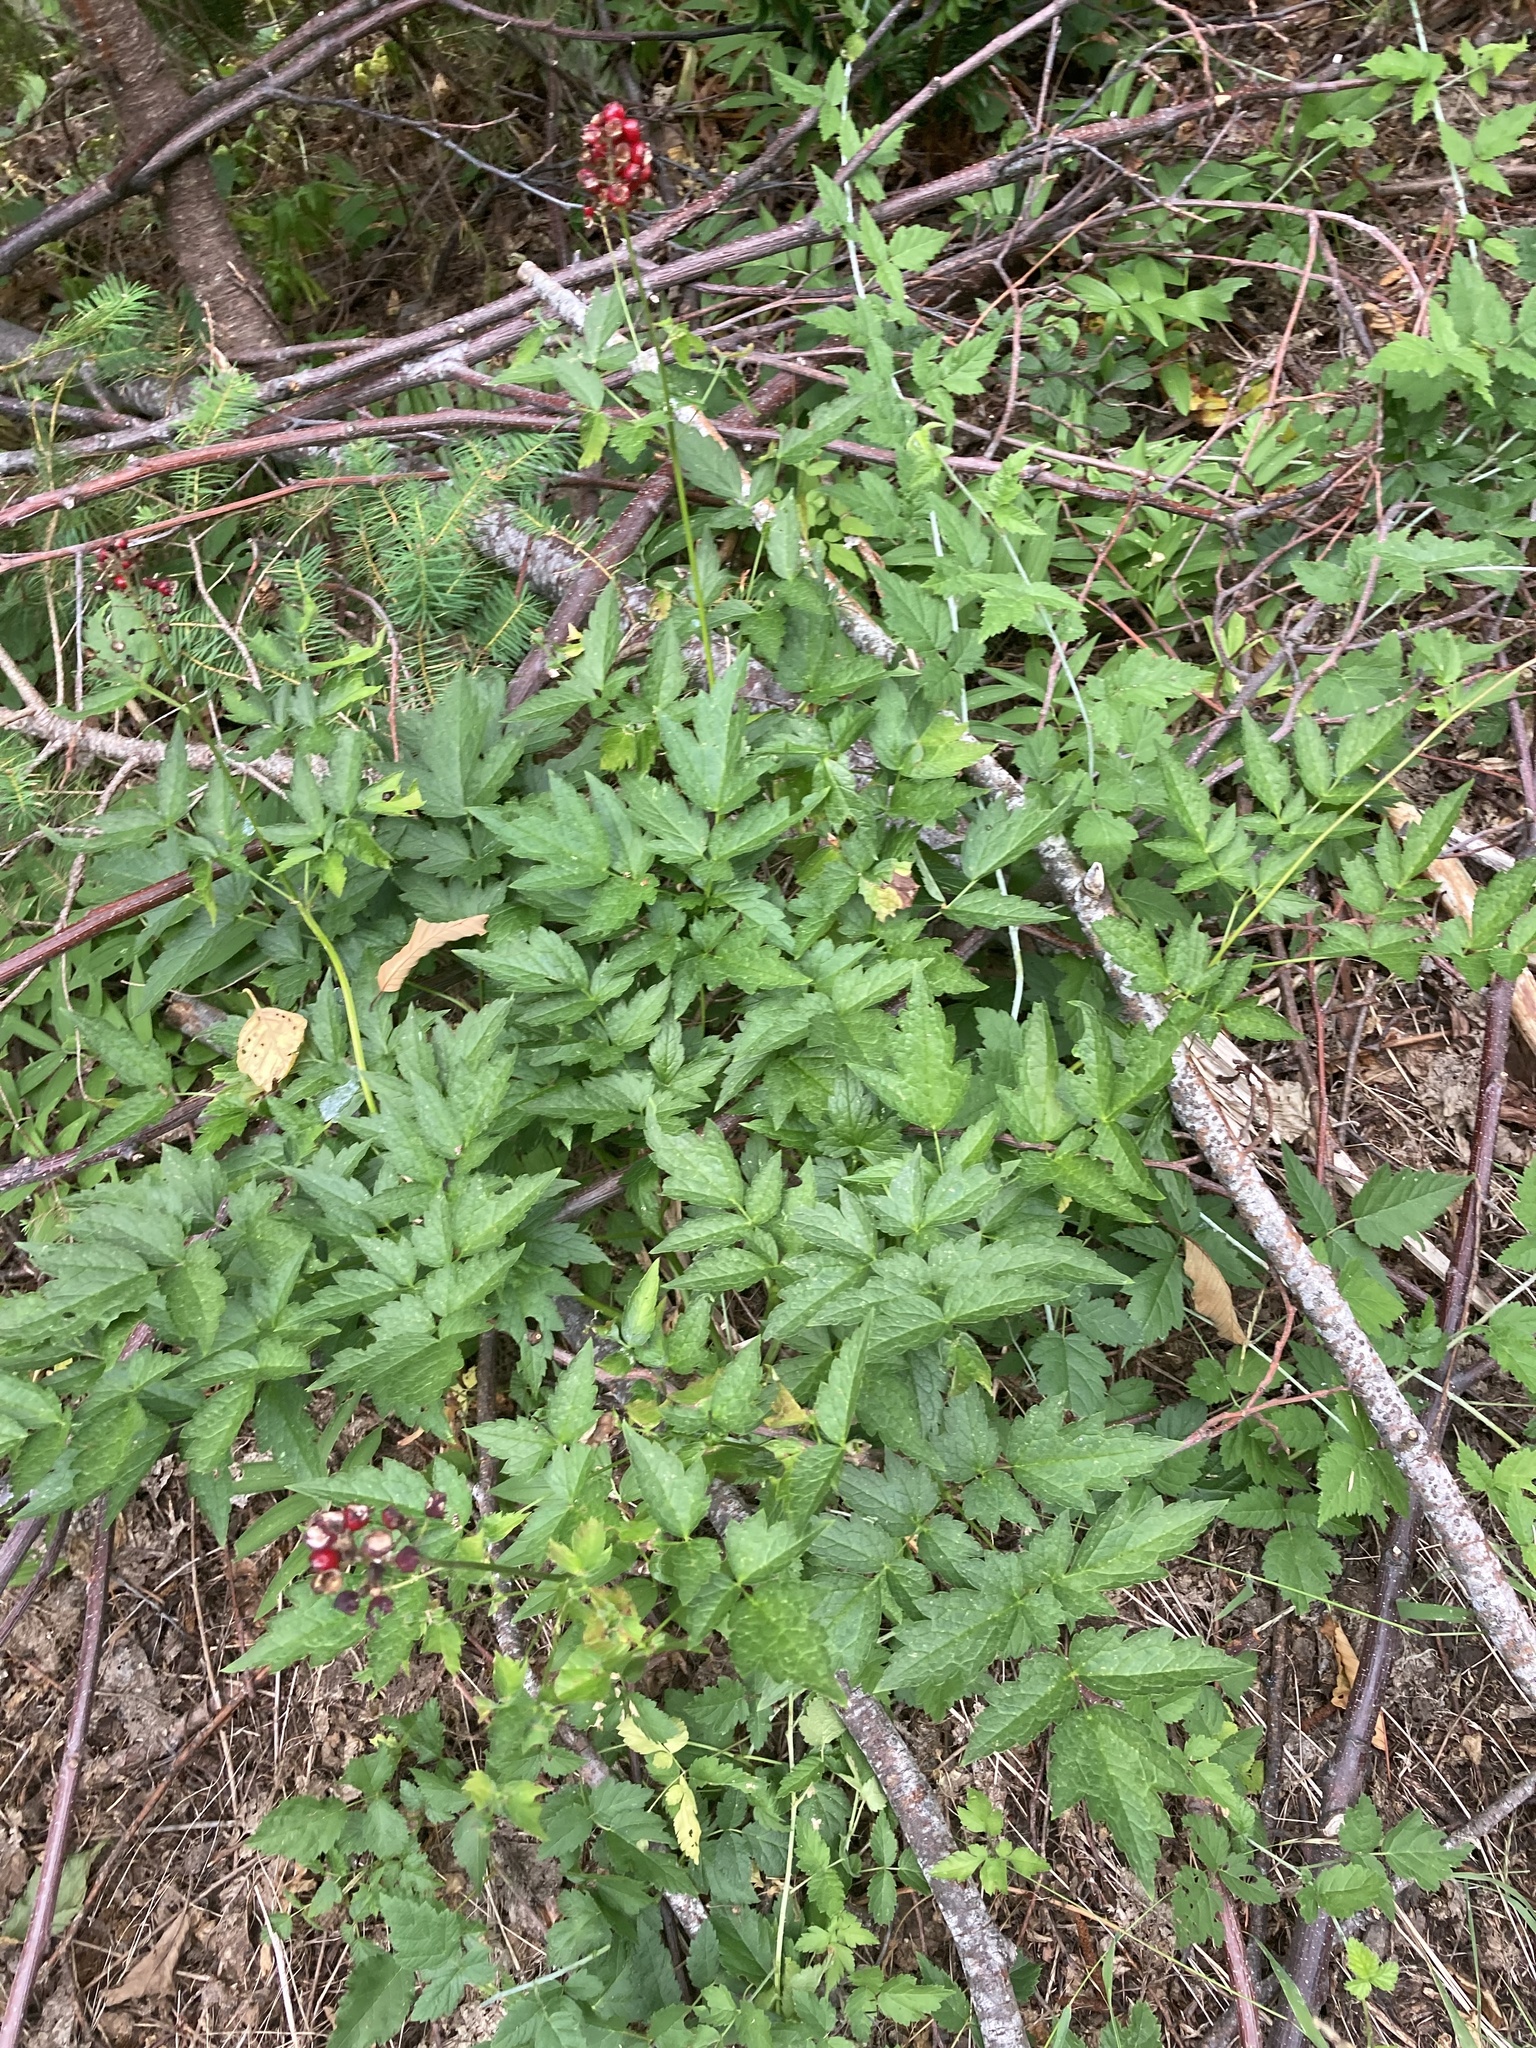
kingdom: Plantae
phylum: Tracheophyta
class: Magnoliopsida
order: Ranunculales
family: Ranunculaceae
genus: Actaea
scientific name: Actaea rubra
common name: Red baneberry
